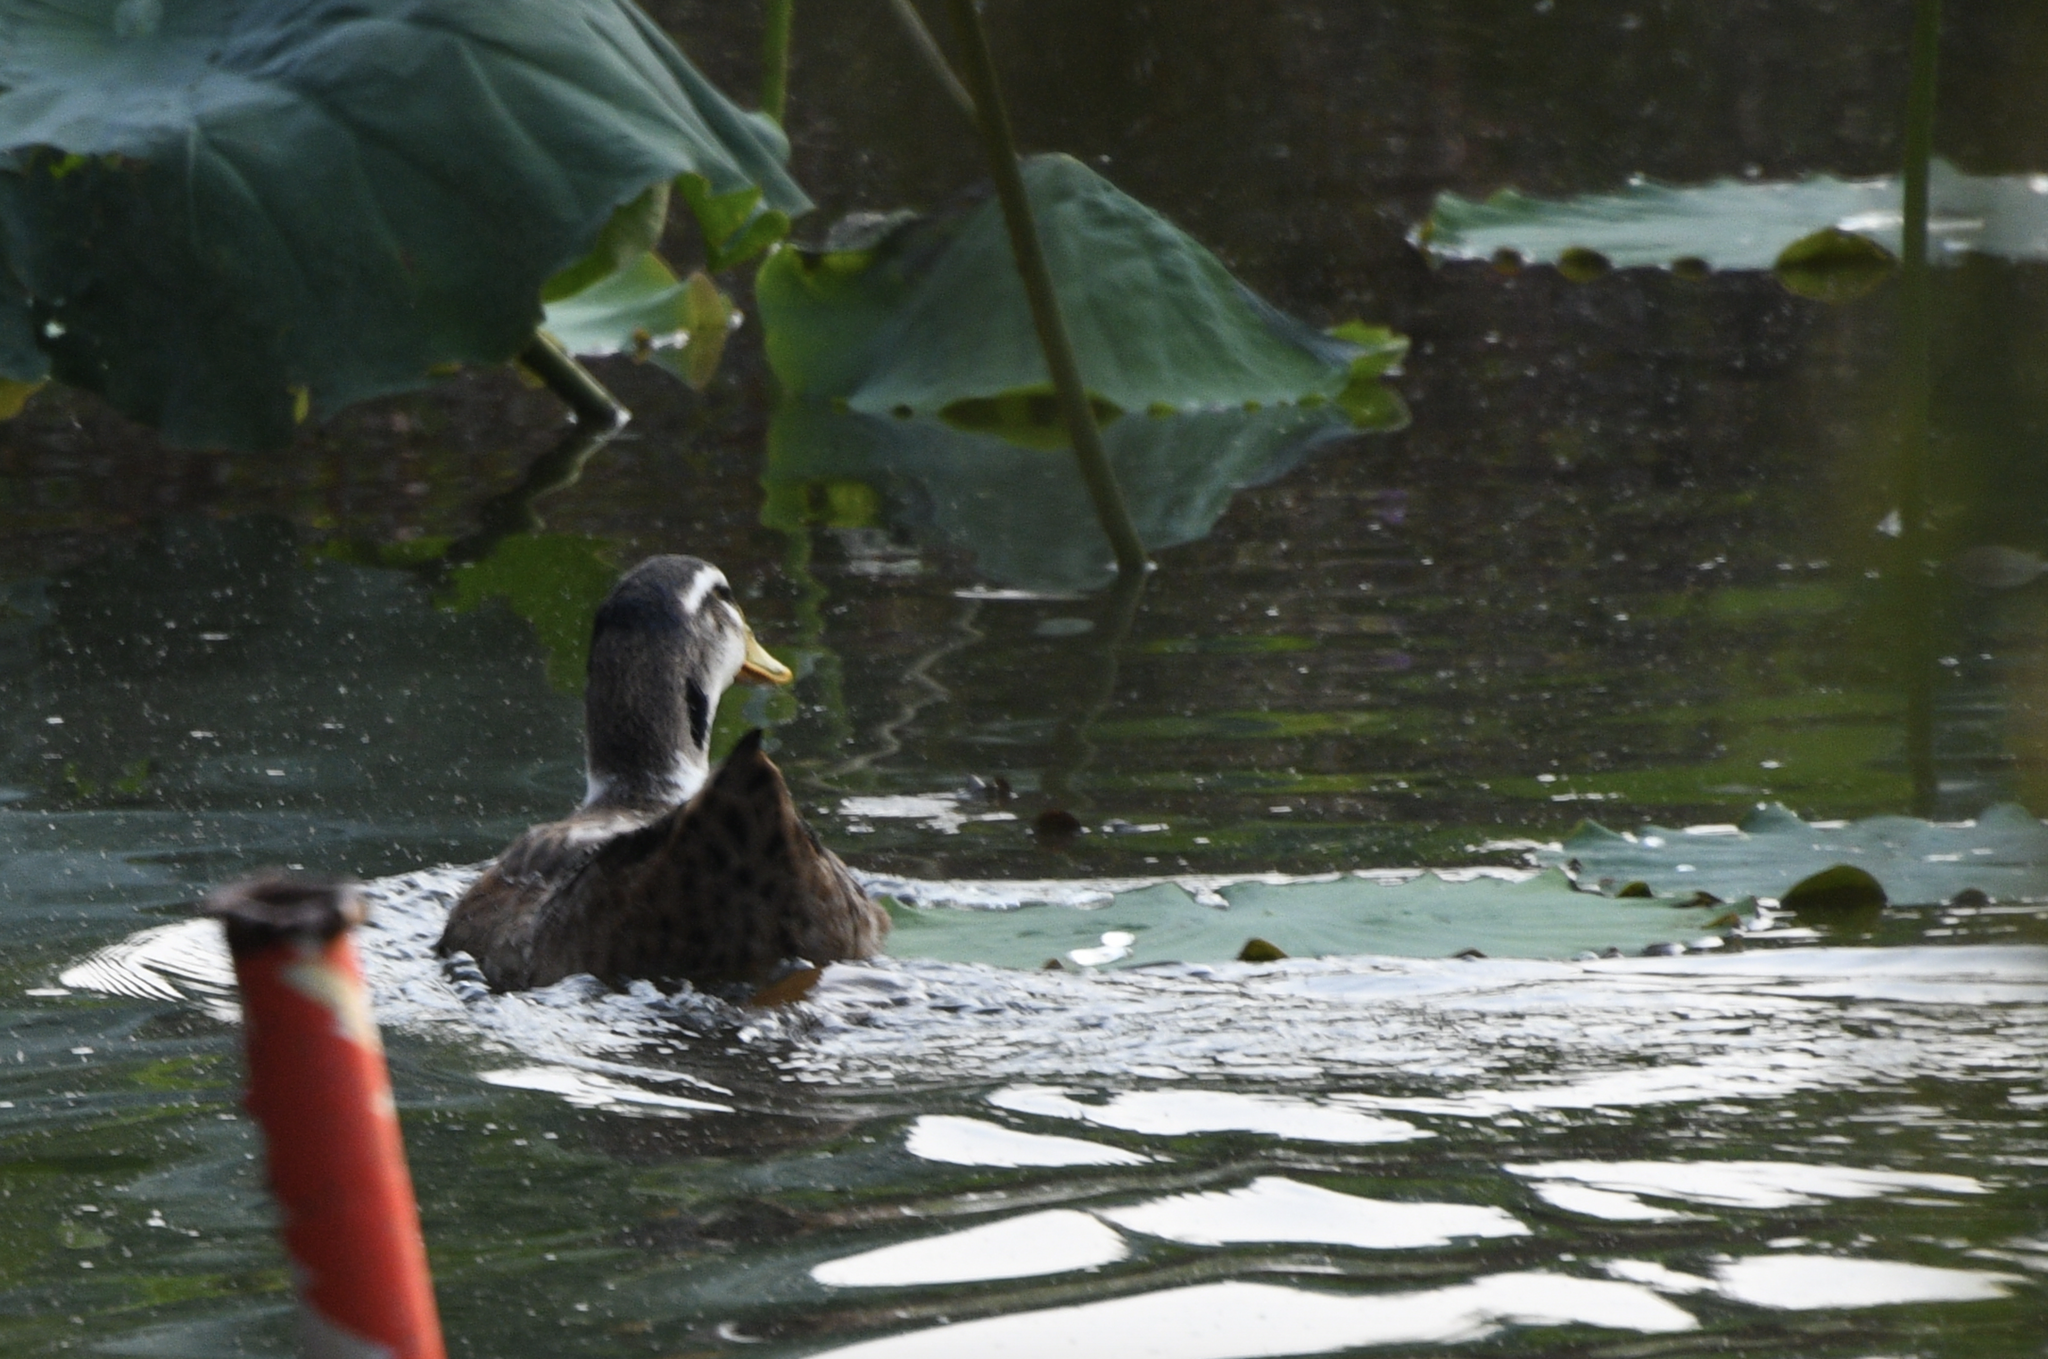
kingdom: Animalia
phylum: Chordata
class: Aves
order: Anseriformes
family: Anatidae
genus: Anas
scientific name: Anas platyrhynchos
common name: Mallard
